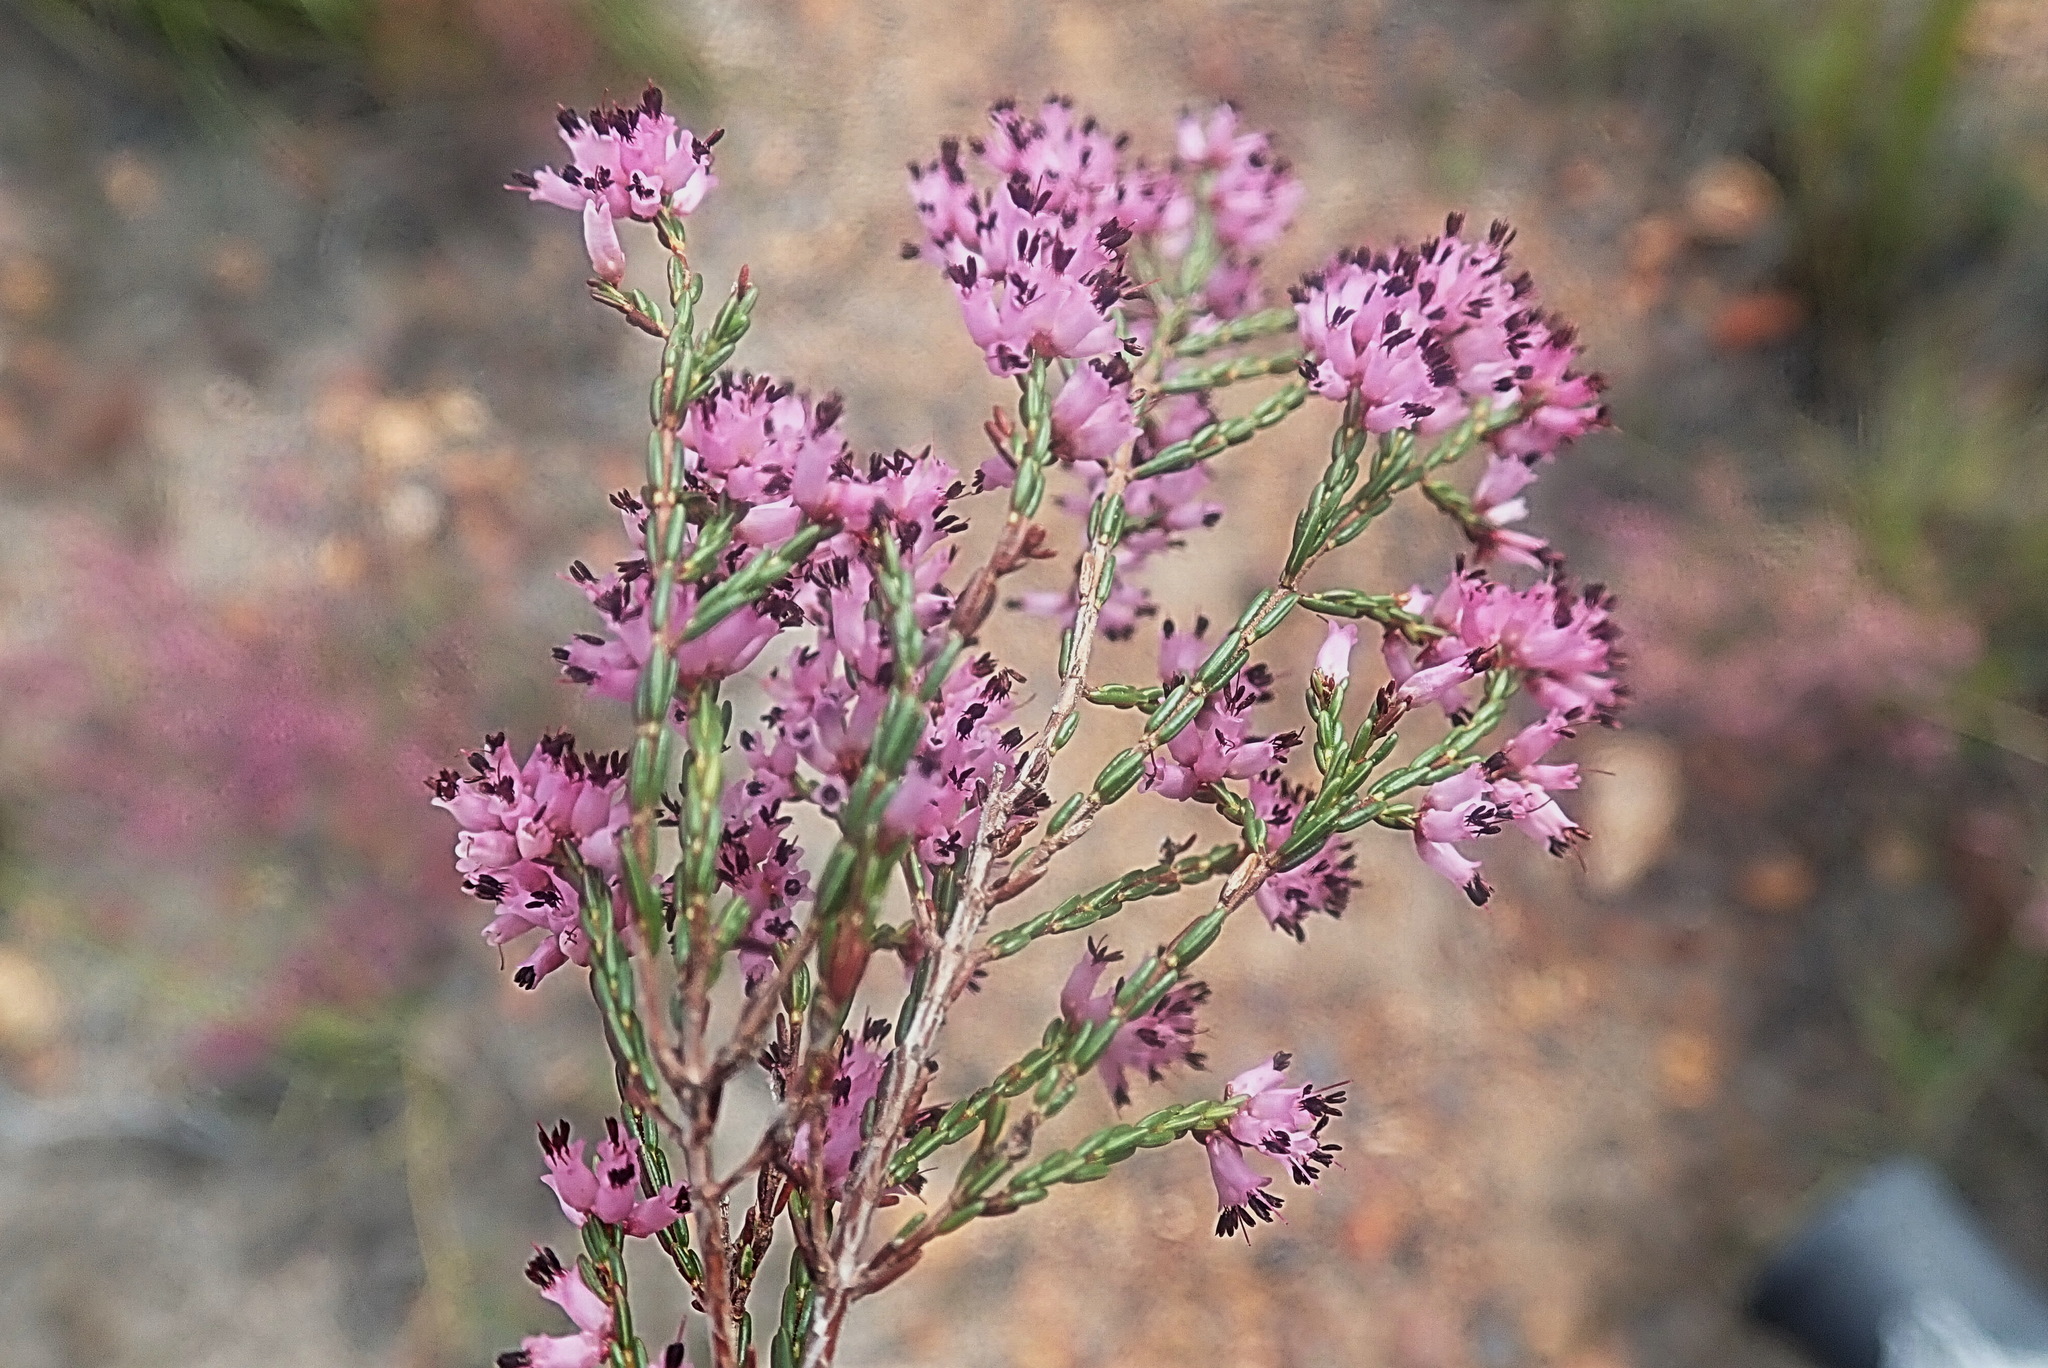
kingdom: Plantae
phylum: Tracheophyta
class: Magnoliopsida
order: Ericales
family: Ericaceae
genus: Erica
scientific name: Erica rosacea
